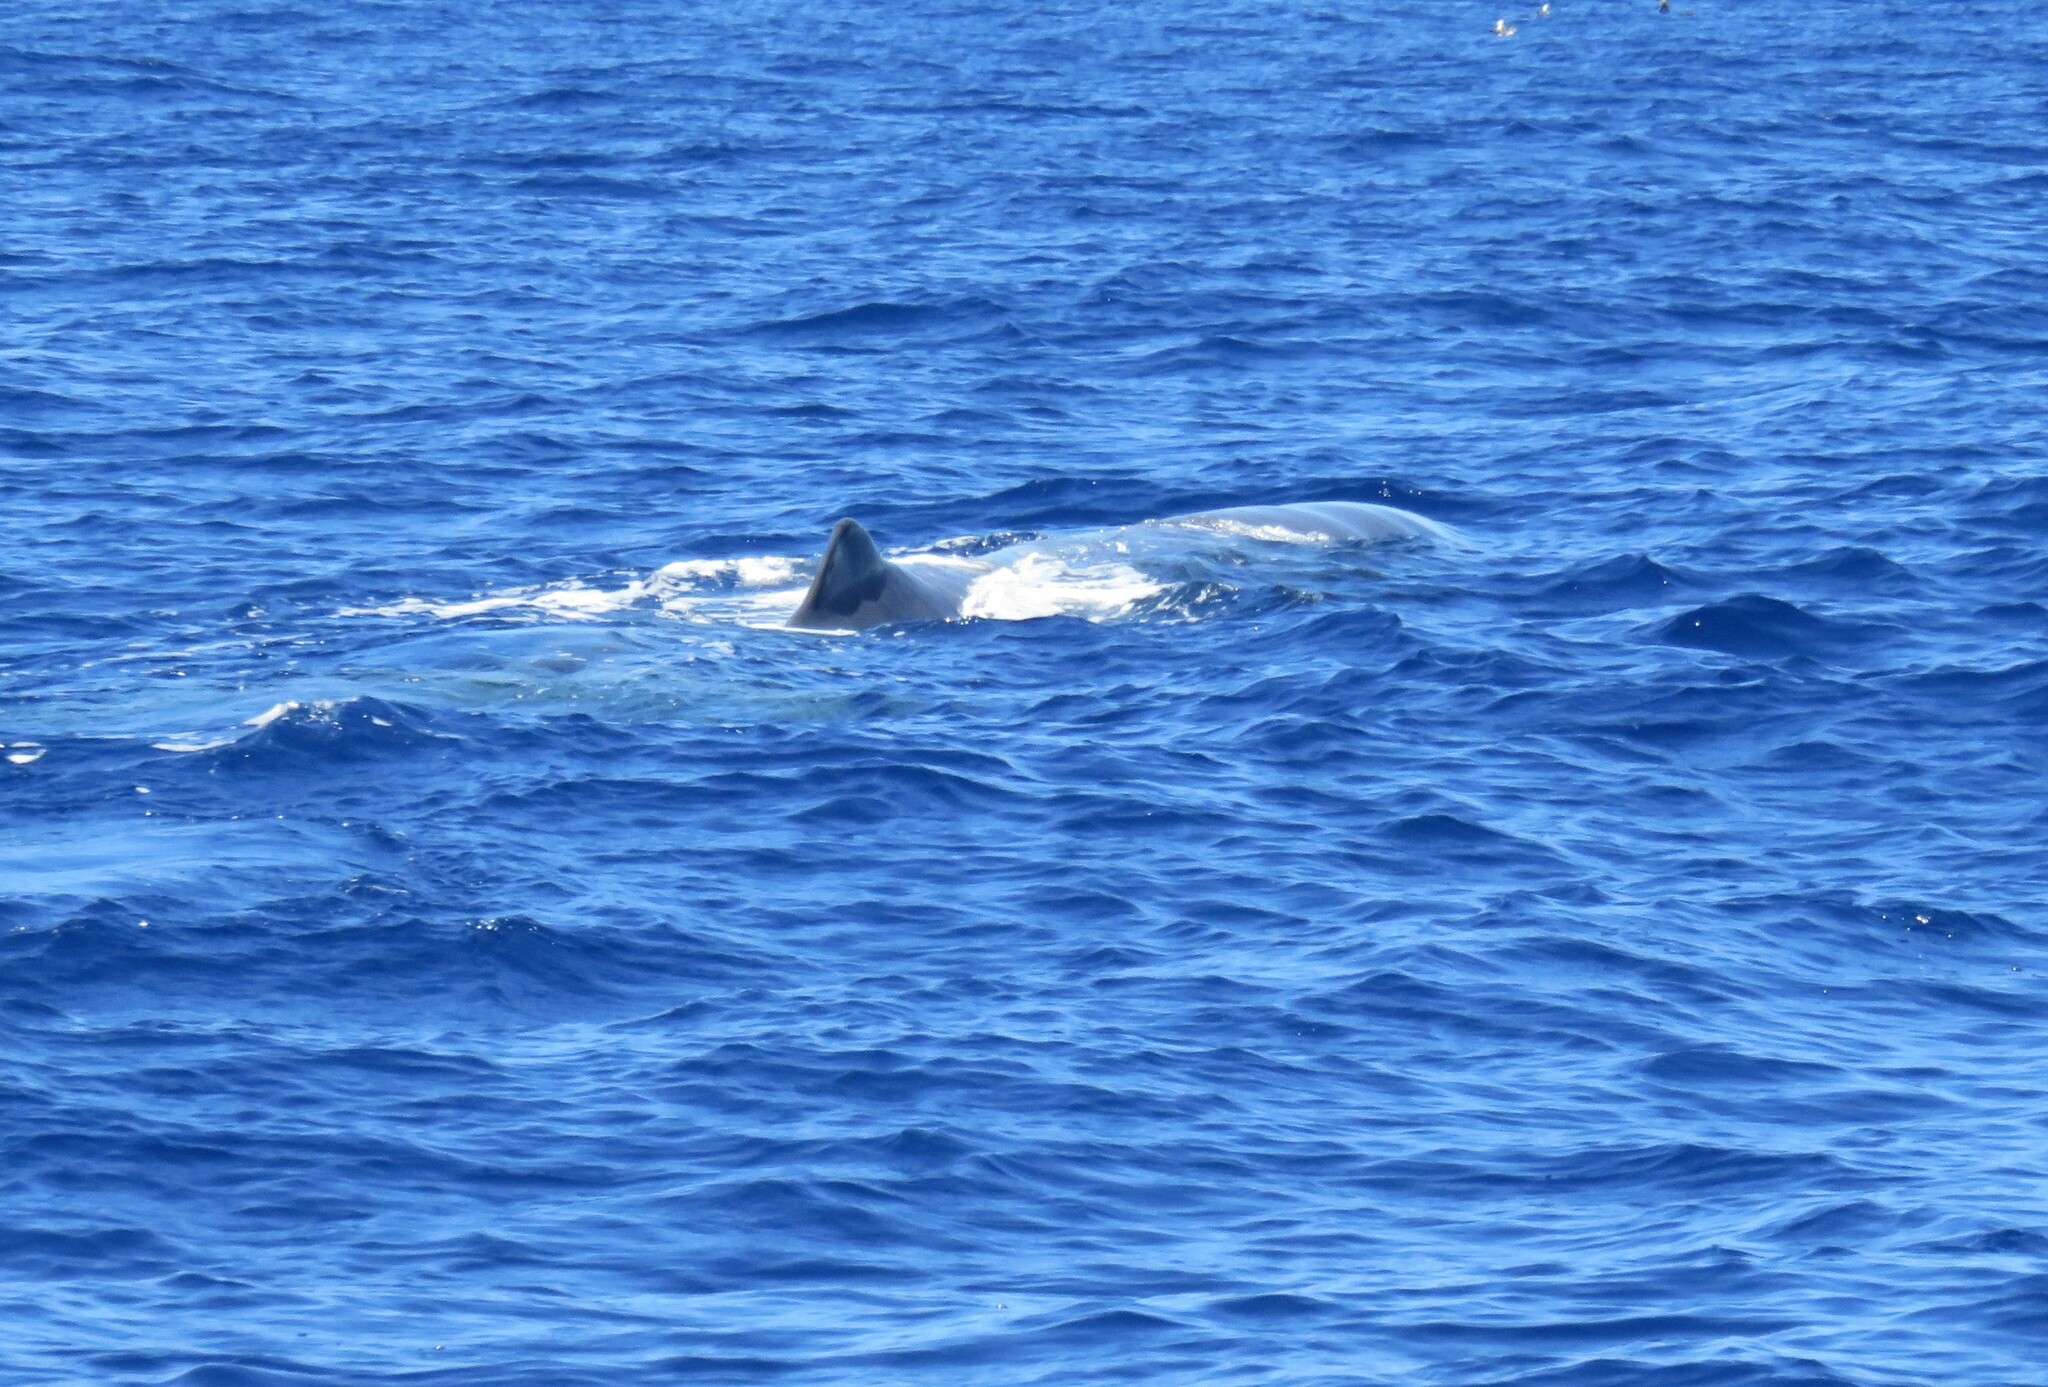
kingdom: Animalia
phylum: Chordata
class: Mammalia
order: Cetacea
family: Physeteridae
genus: Physeter
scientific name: Physeter macrocephalus
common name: Sperm whale
